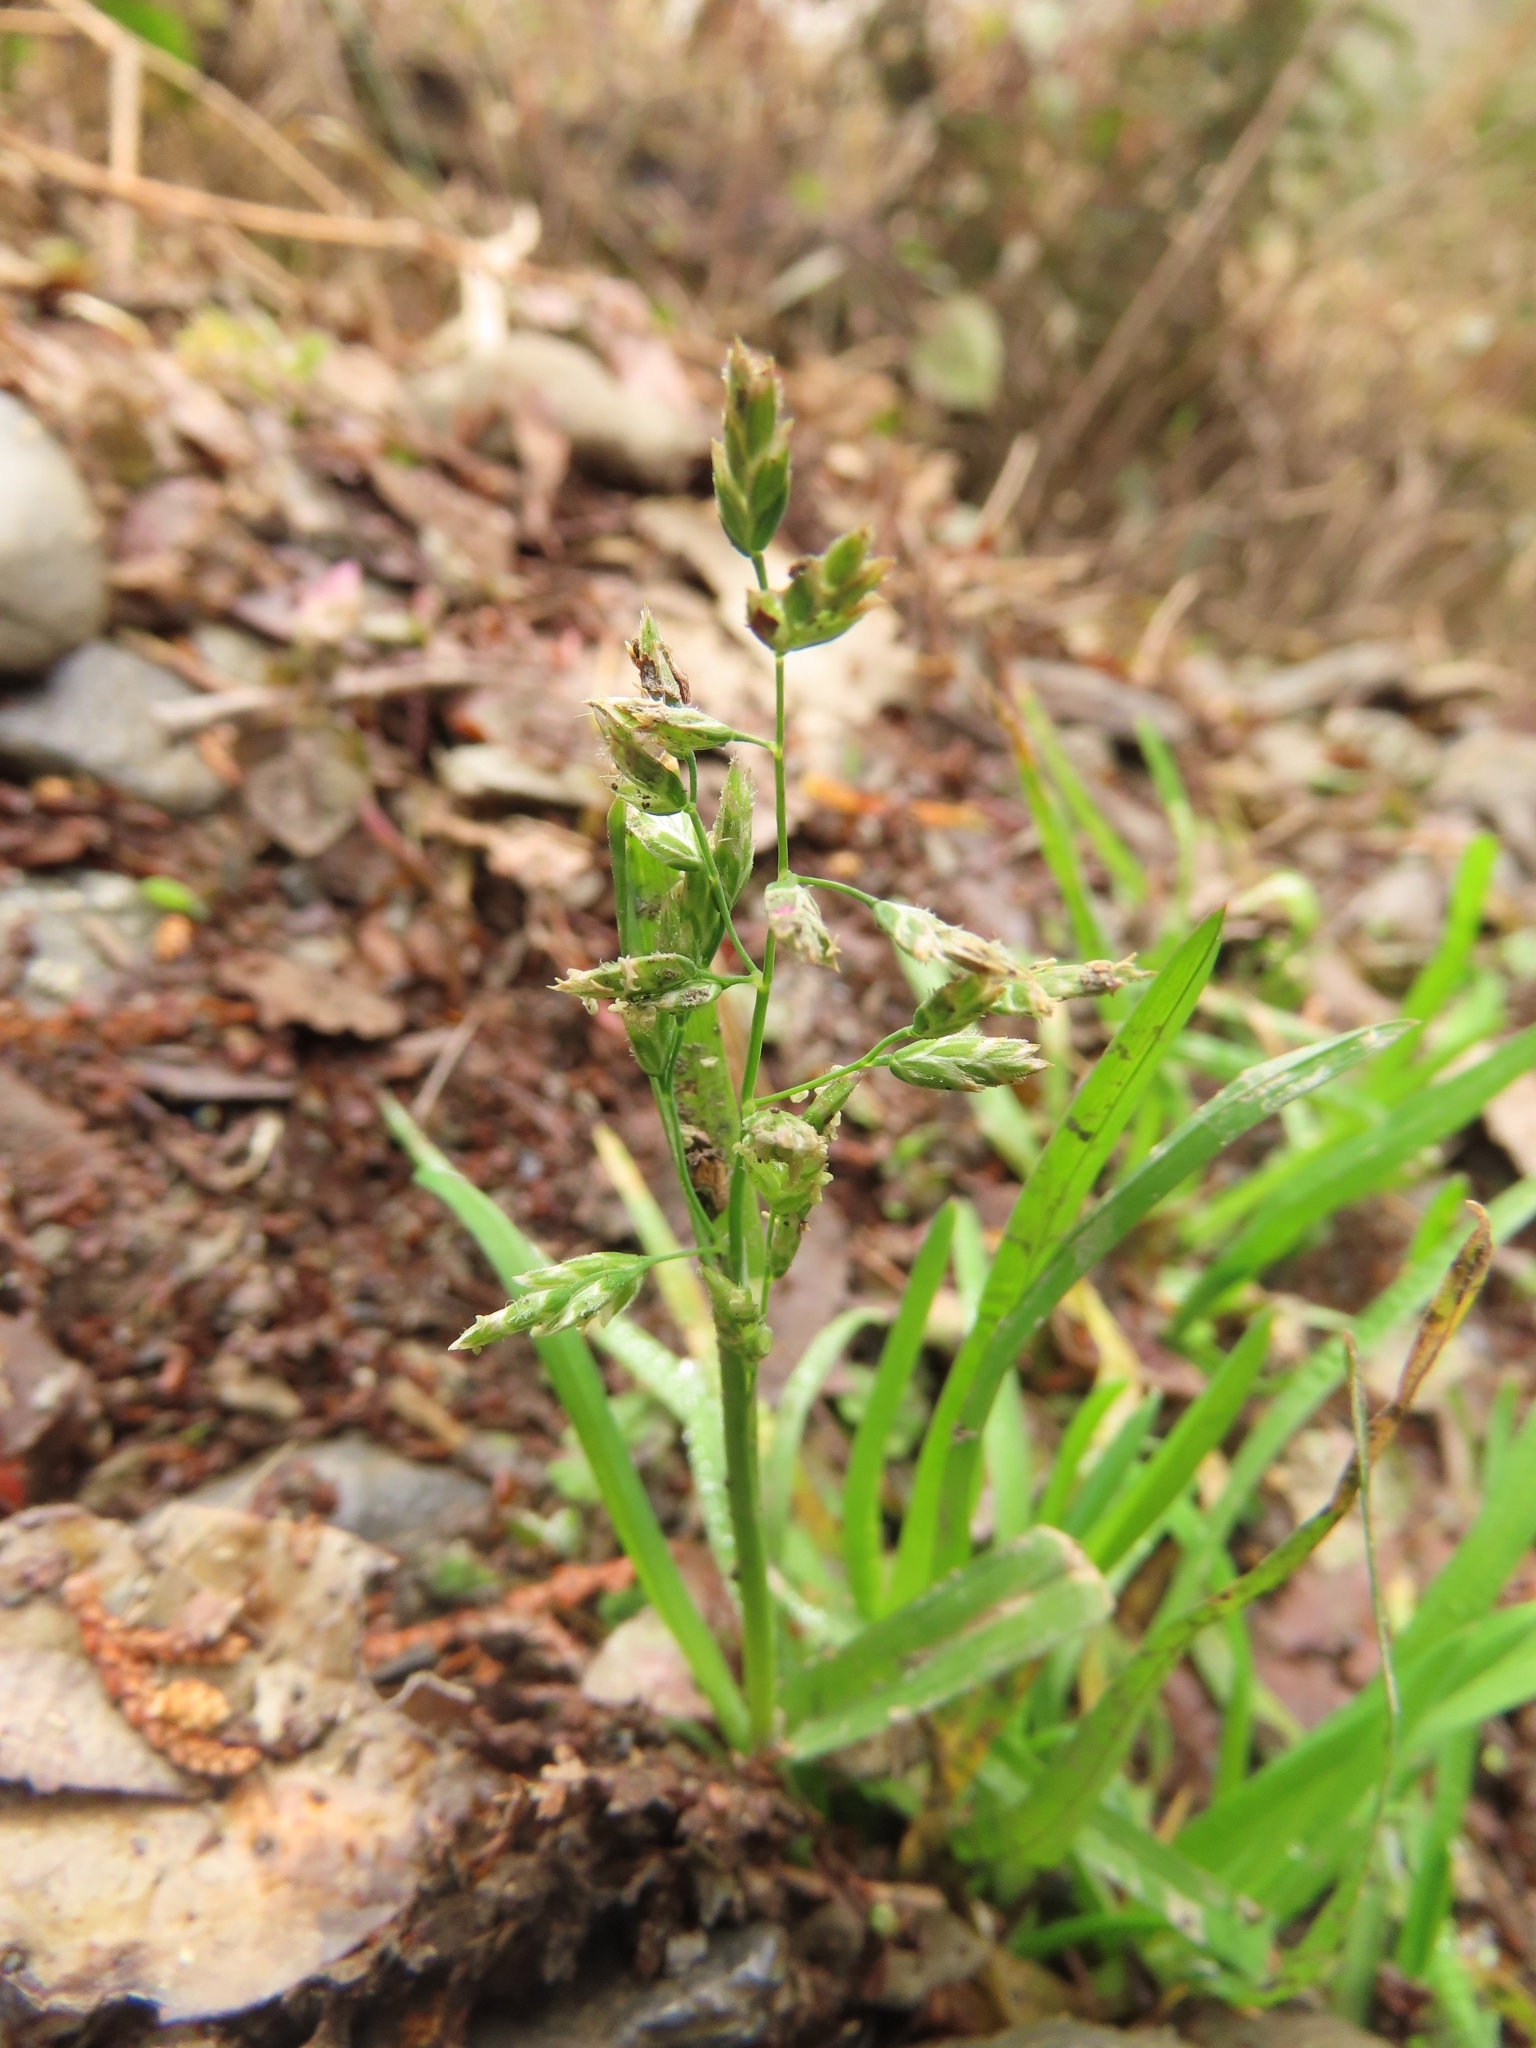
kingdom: Plantae
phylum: Tracheophyta
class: Liliopsida
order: Poales
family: Poaceae
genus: Poa
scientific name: Poa annua
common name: Annual bluegrass
